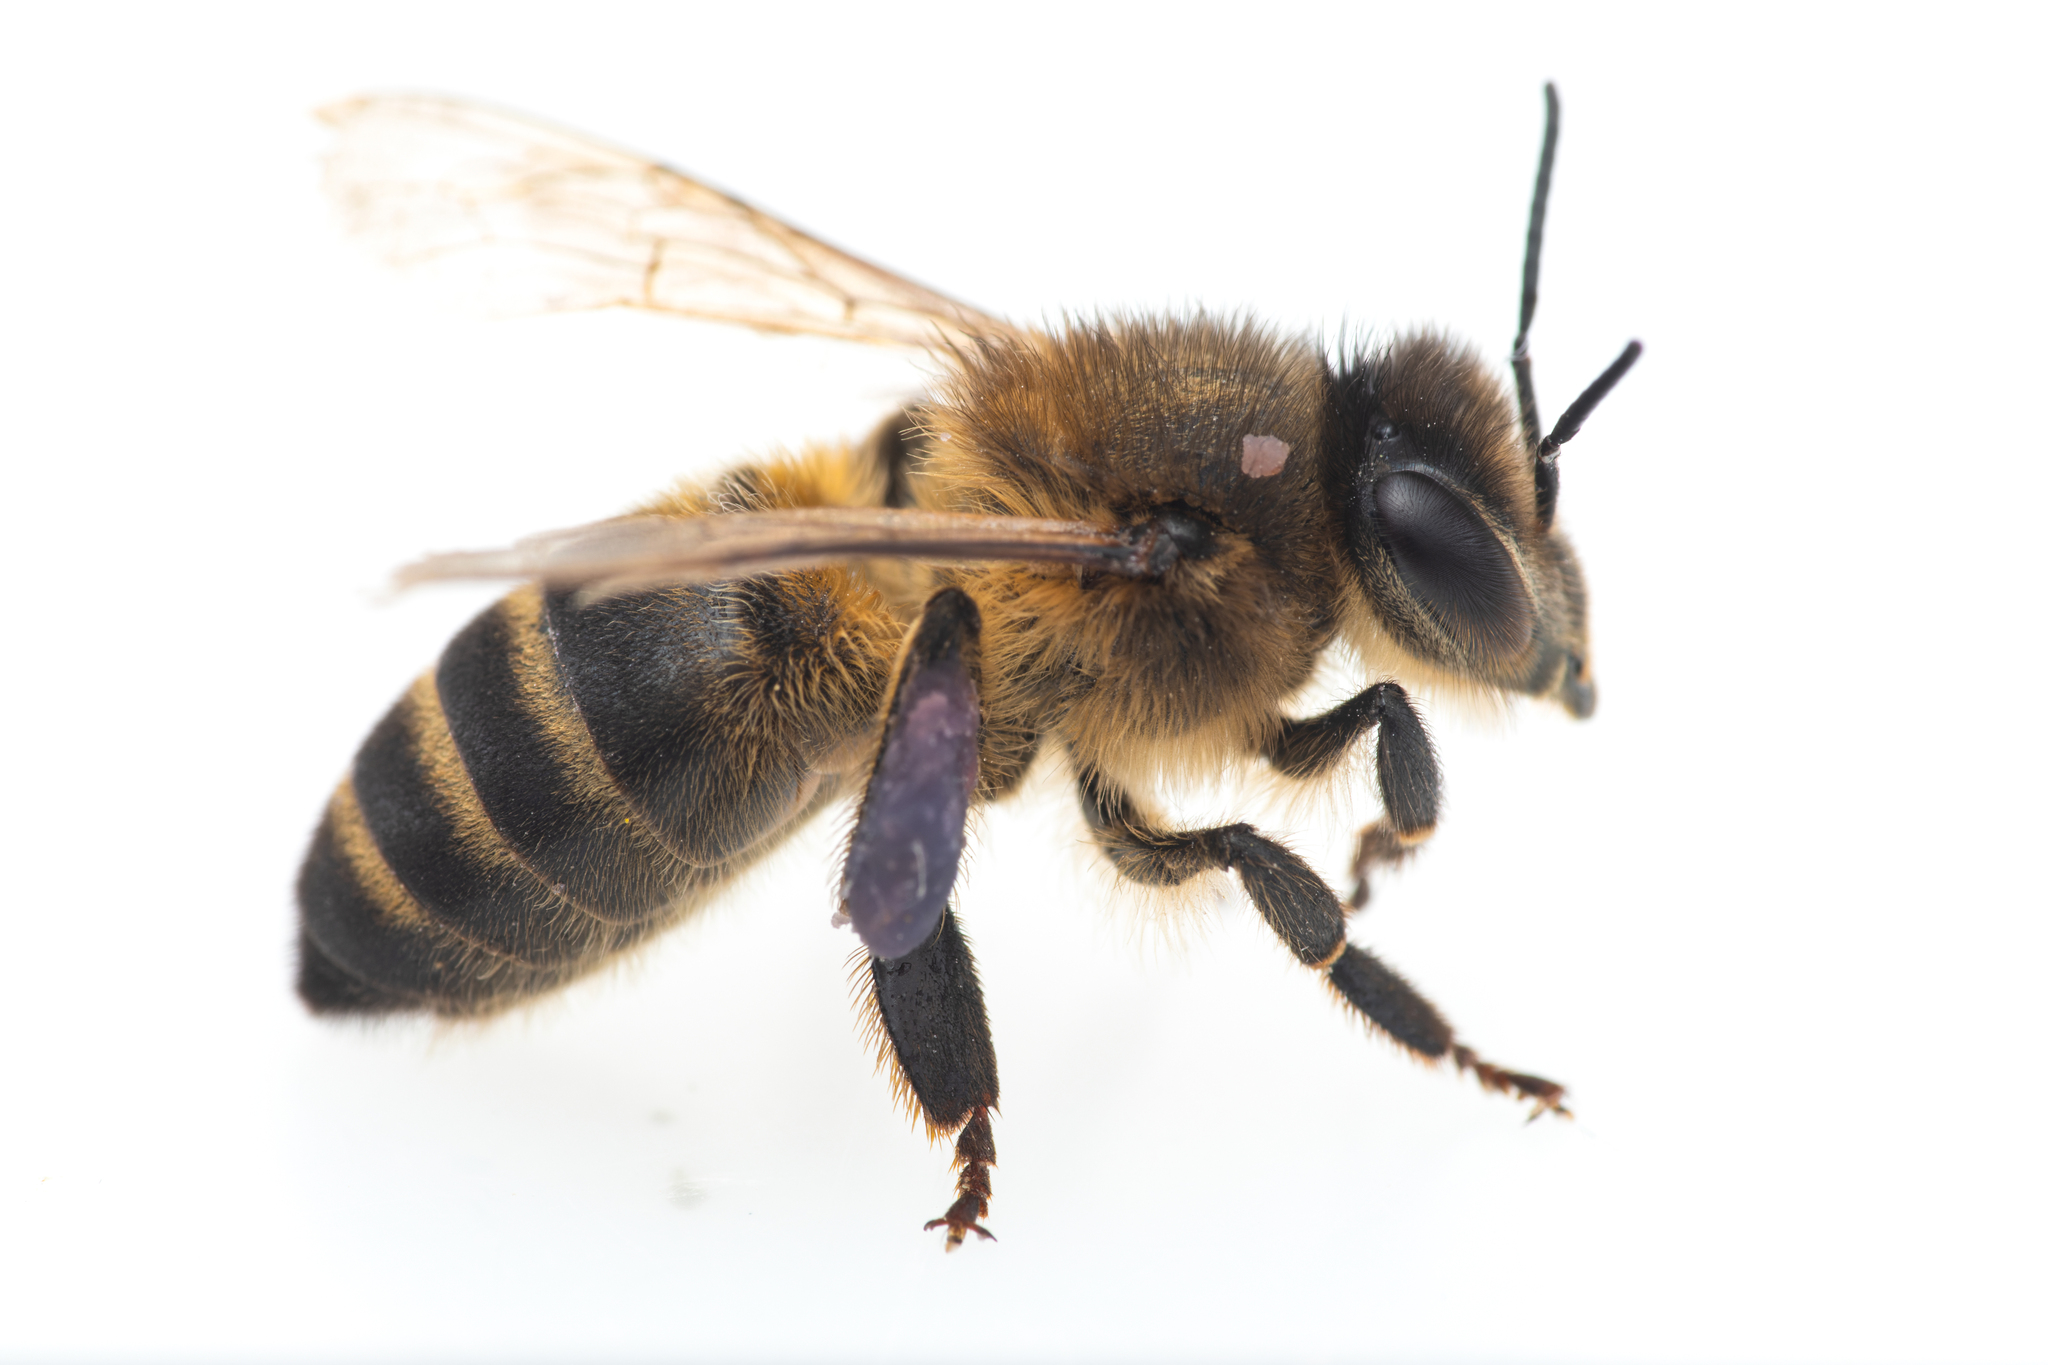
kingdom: Animalia
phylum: Arthropoda
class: Insecta
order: Hymenoptera
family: Apidae
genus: Apis
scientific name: Apis mellifera
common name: Honey bee
